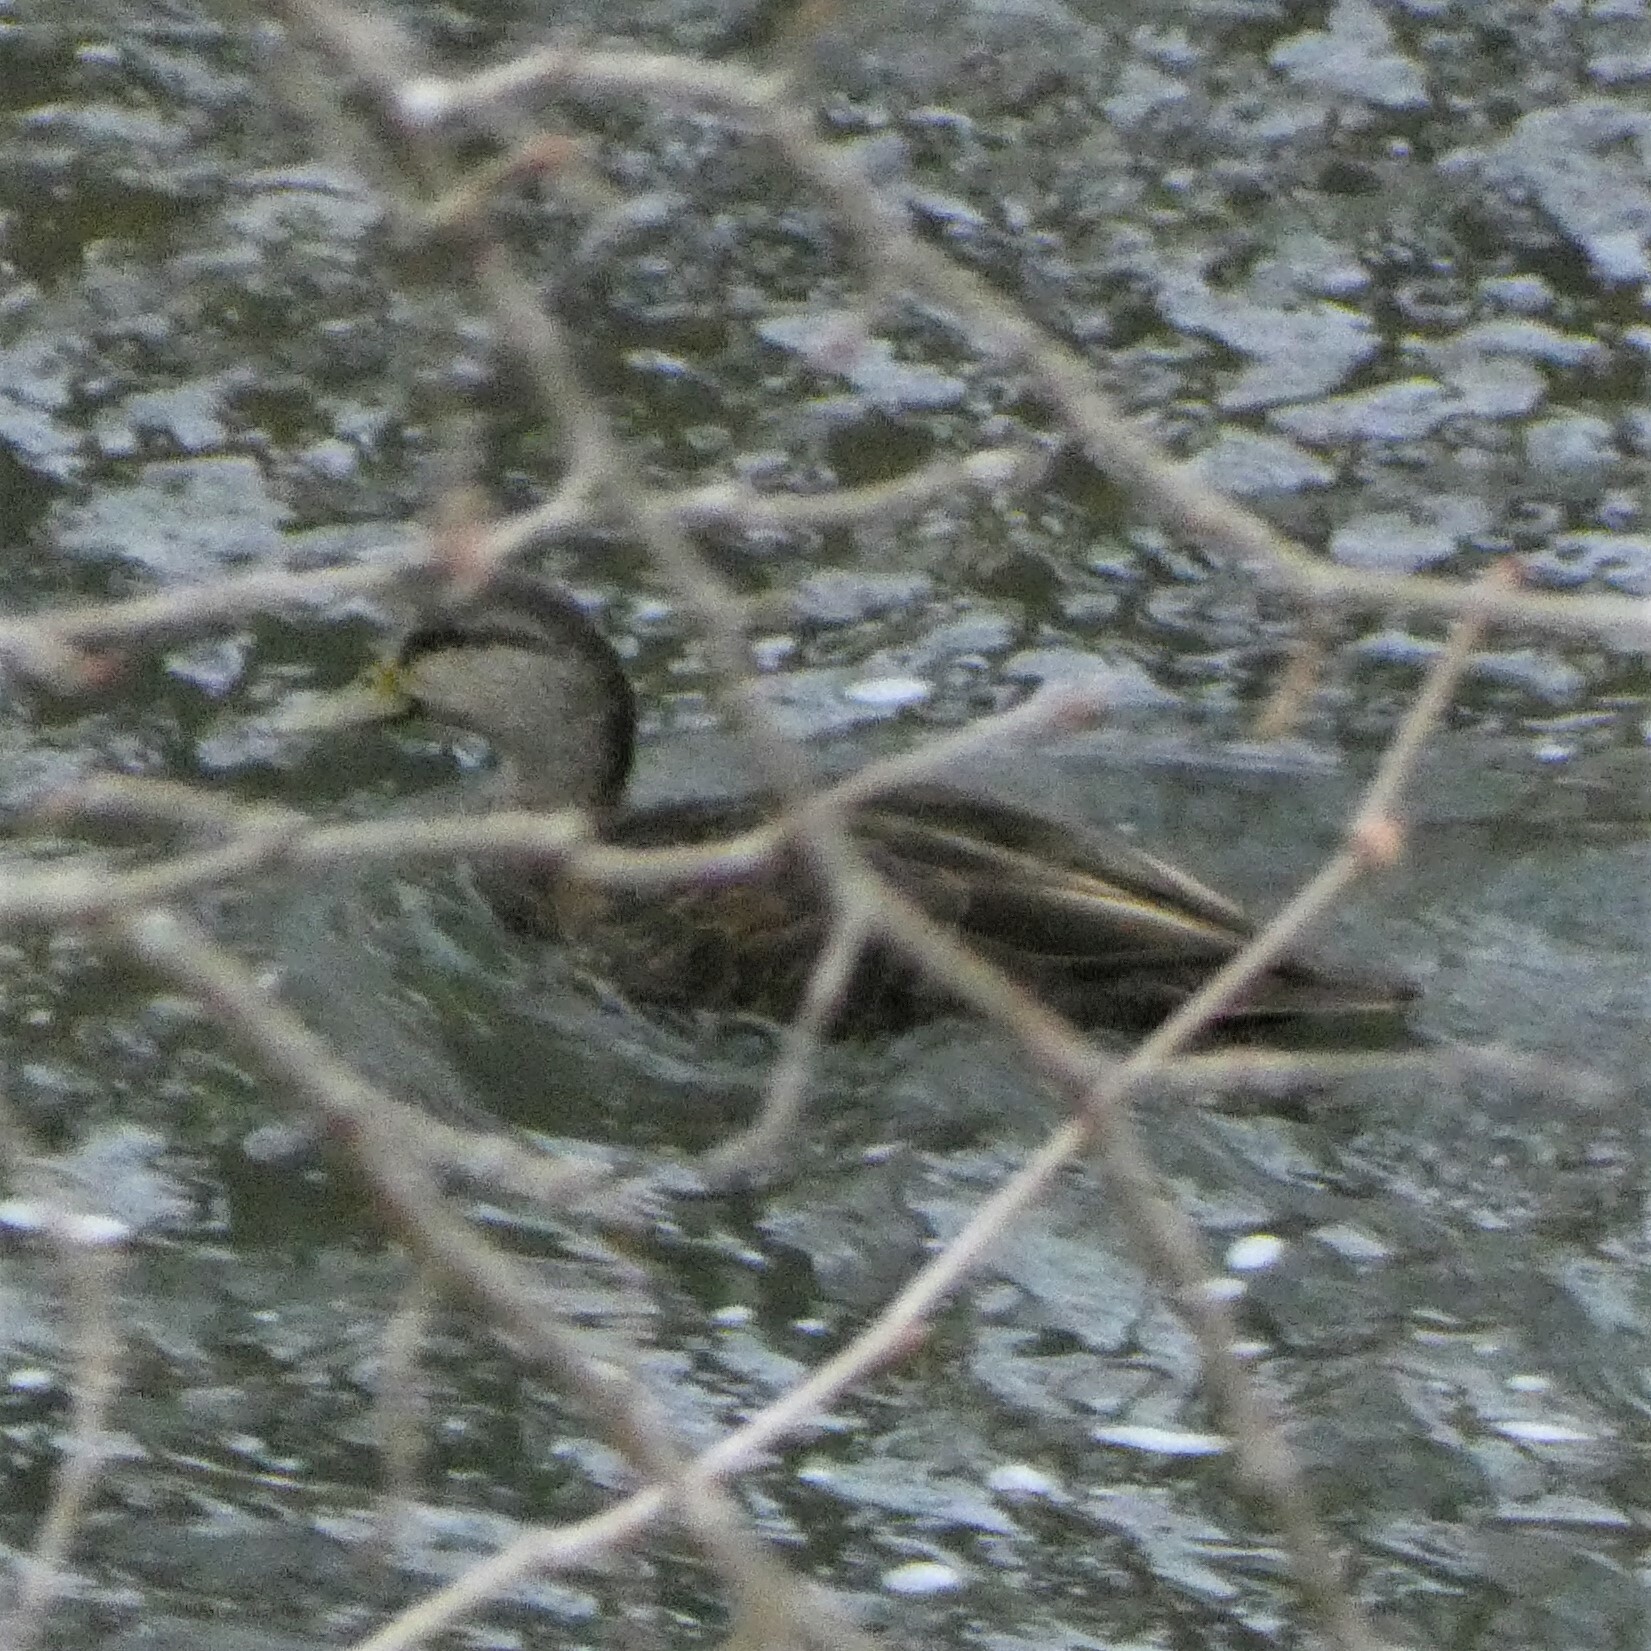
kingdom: Animalia
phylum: Chordata
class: Aves
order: Anseriformes
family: Anatidae
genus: Anas
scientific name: Anas rubripes
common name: American black duck
